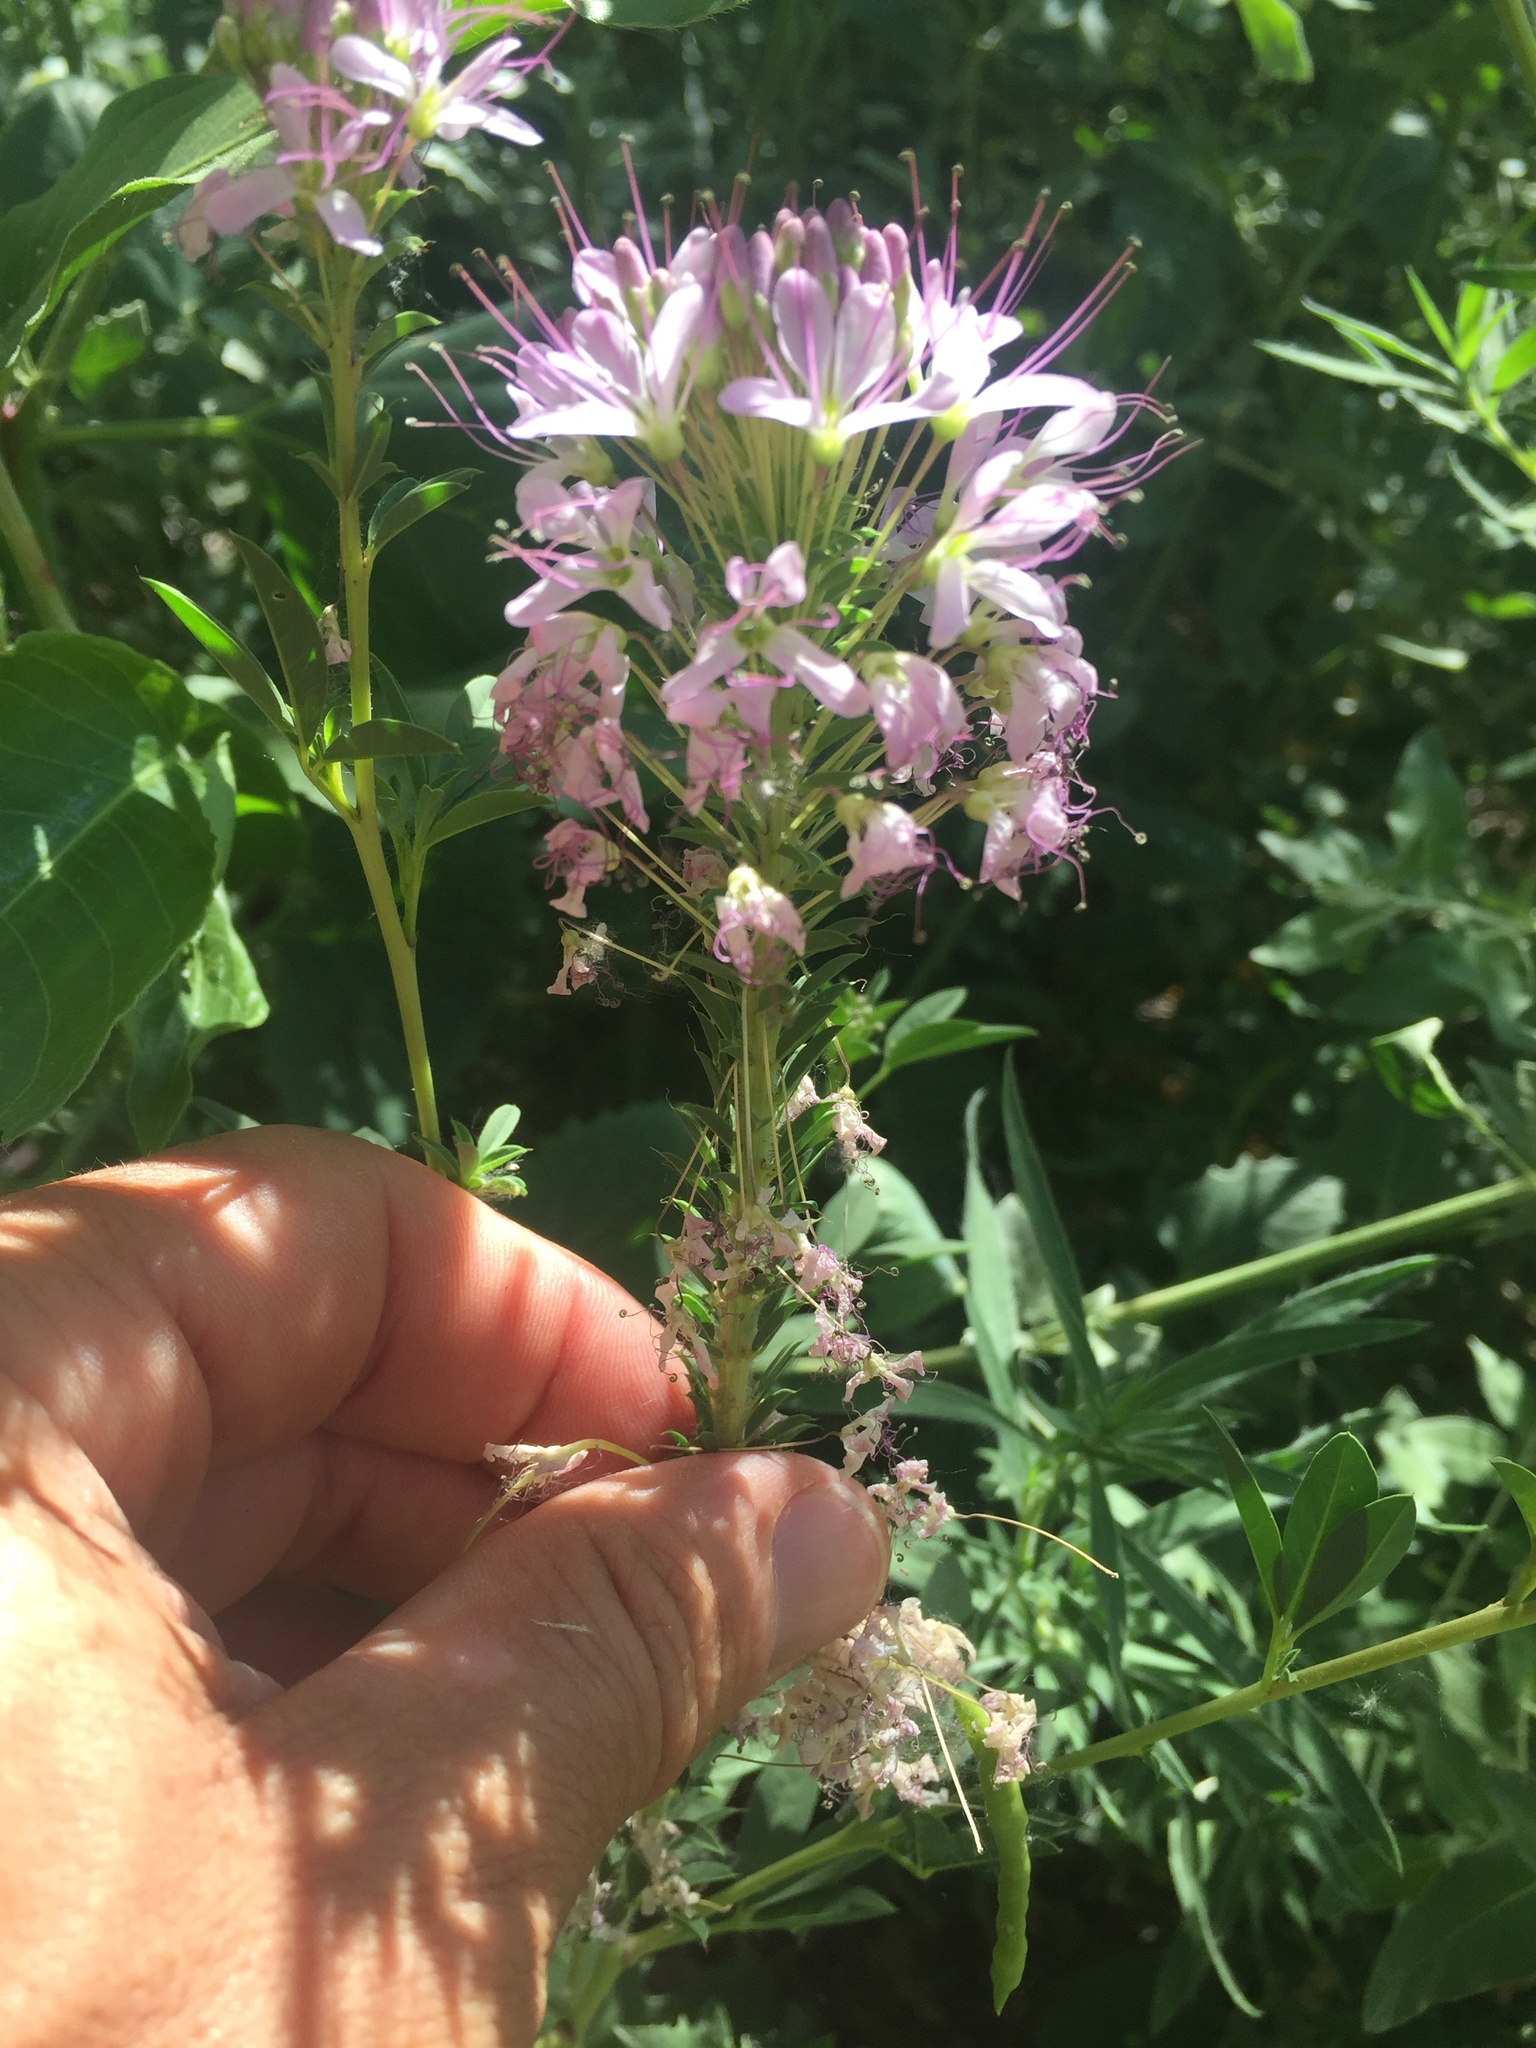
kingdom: Plantae
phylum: Tracheophyta
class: Magnoliopsida
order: Brassicales
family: Cleomaceae
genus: Cleomella
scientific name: Cleomella serrulata
